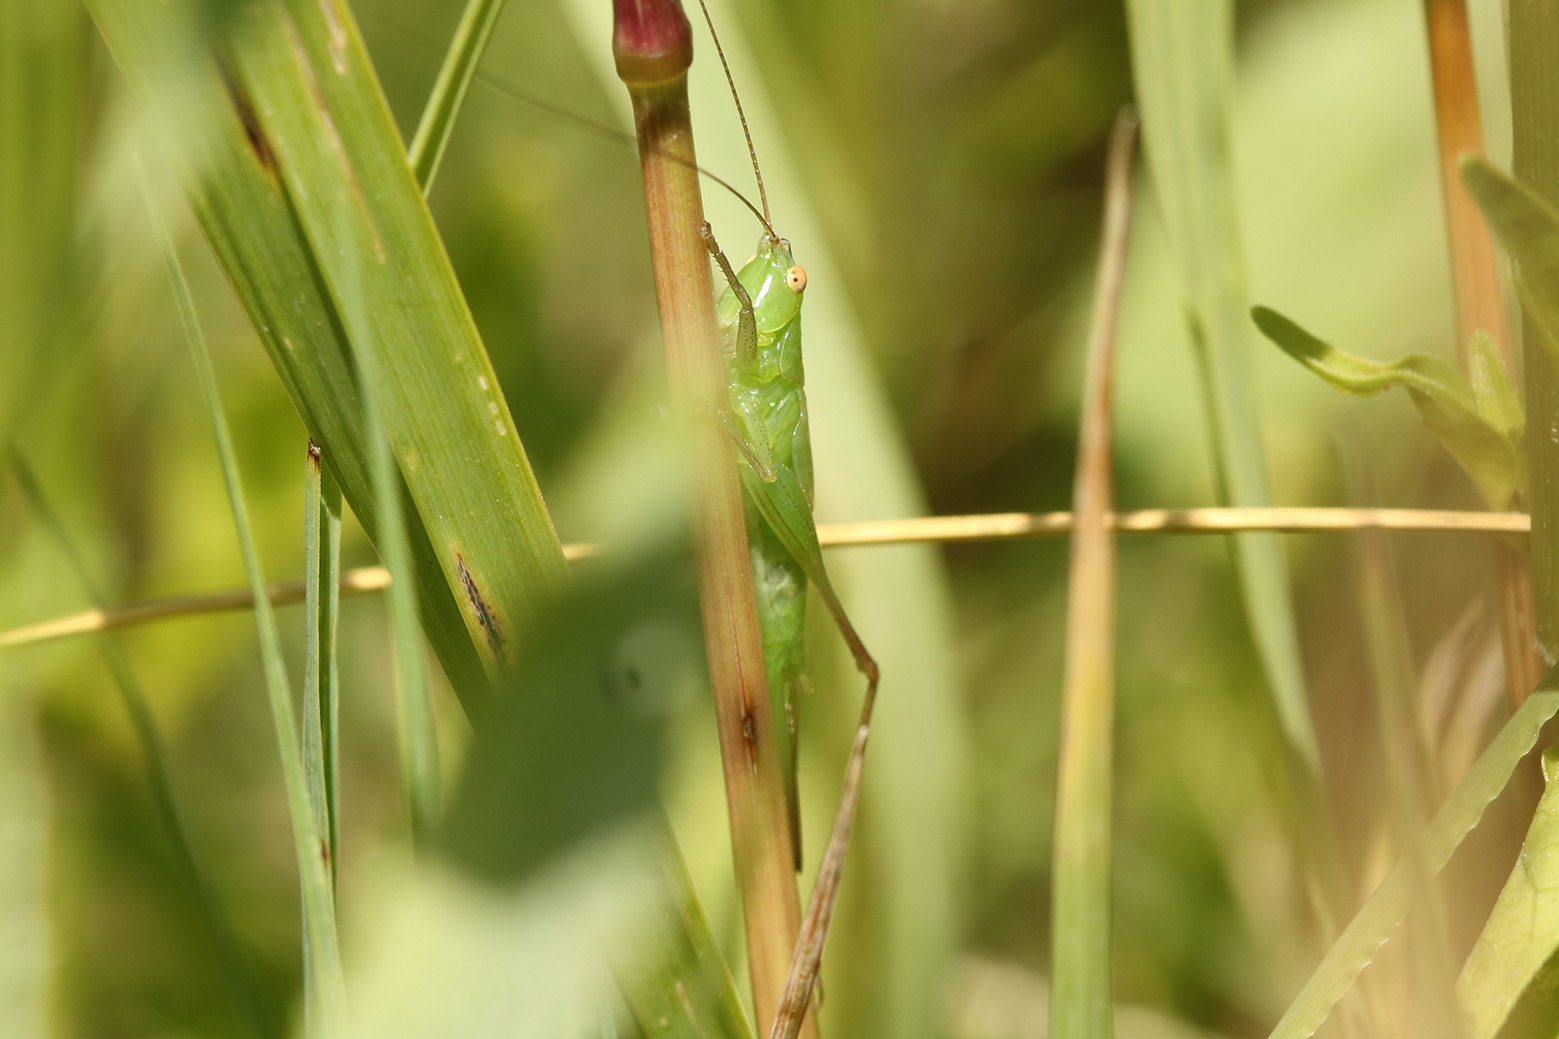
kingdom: Animalia
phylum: Arthropoda
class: Insecta
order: Orthoptera
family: Tettigoniidae
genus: Conocephalus
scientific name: Conocephalus longipes
